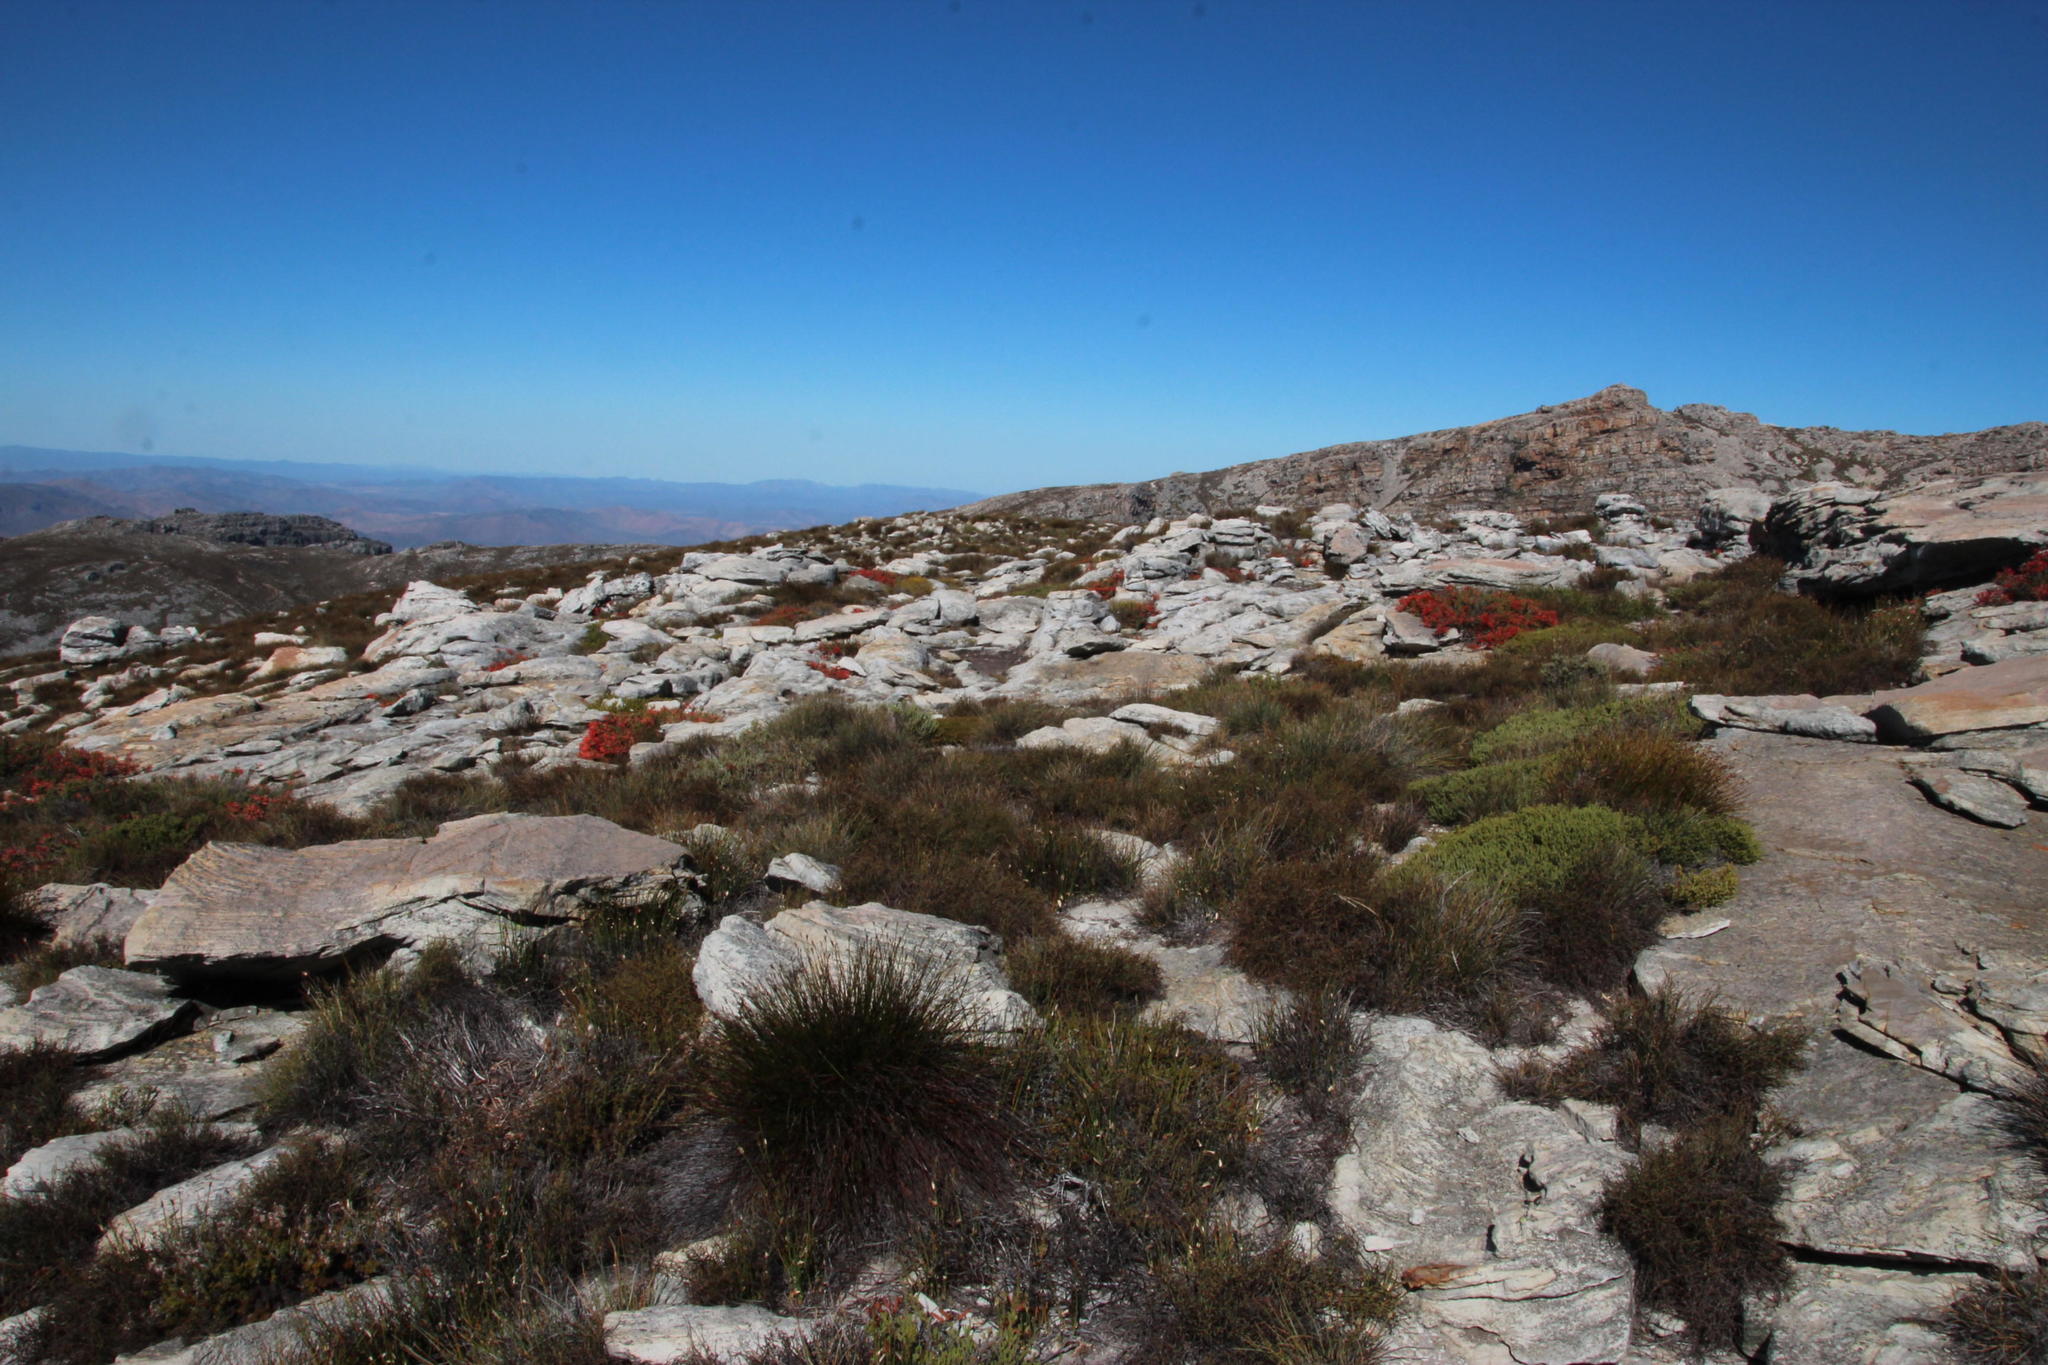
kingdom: Plantae
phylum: Tracheophyta
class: Magnoliopsida
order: Ericales
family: Ericaceae
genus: Erica
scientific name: Erica tumida
